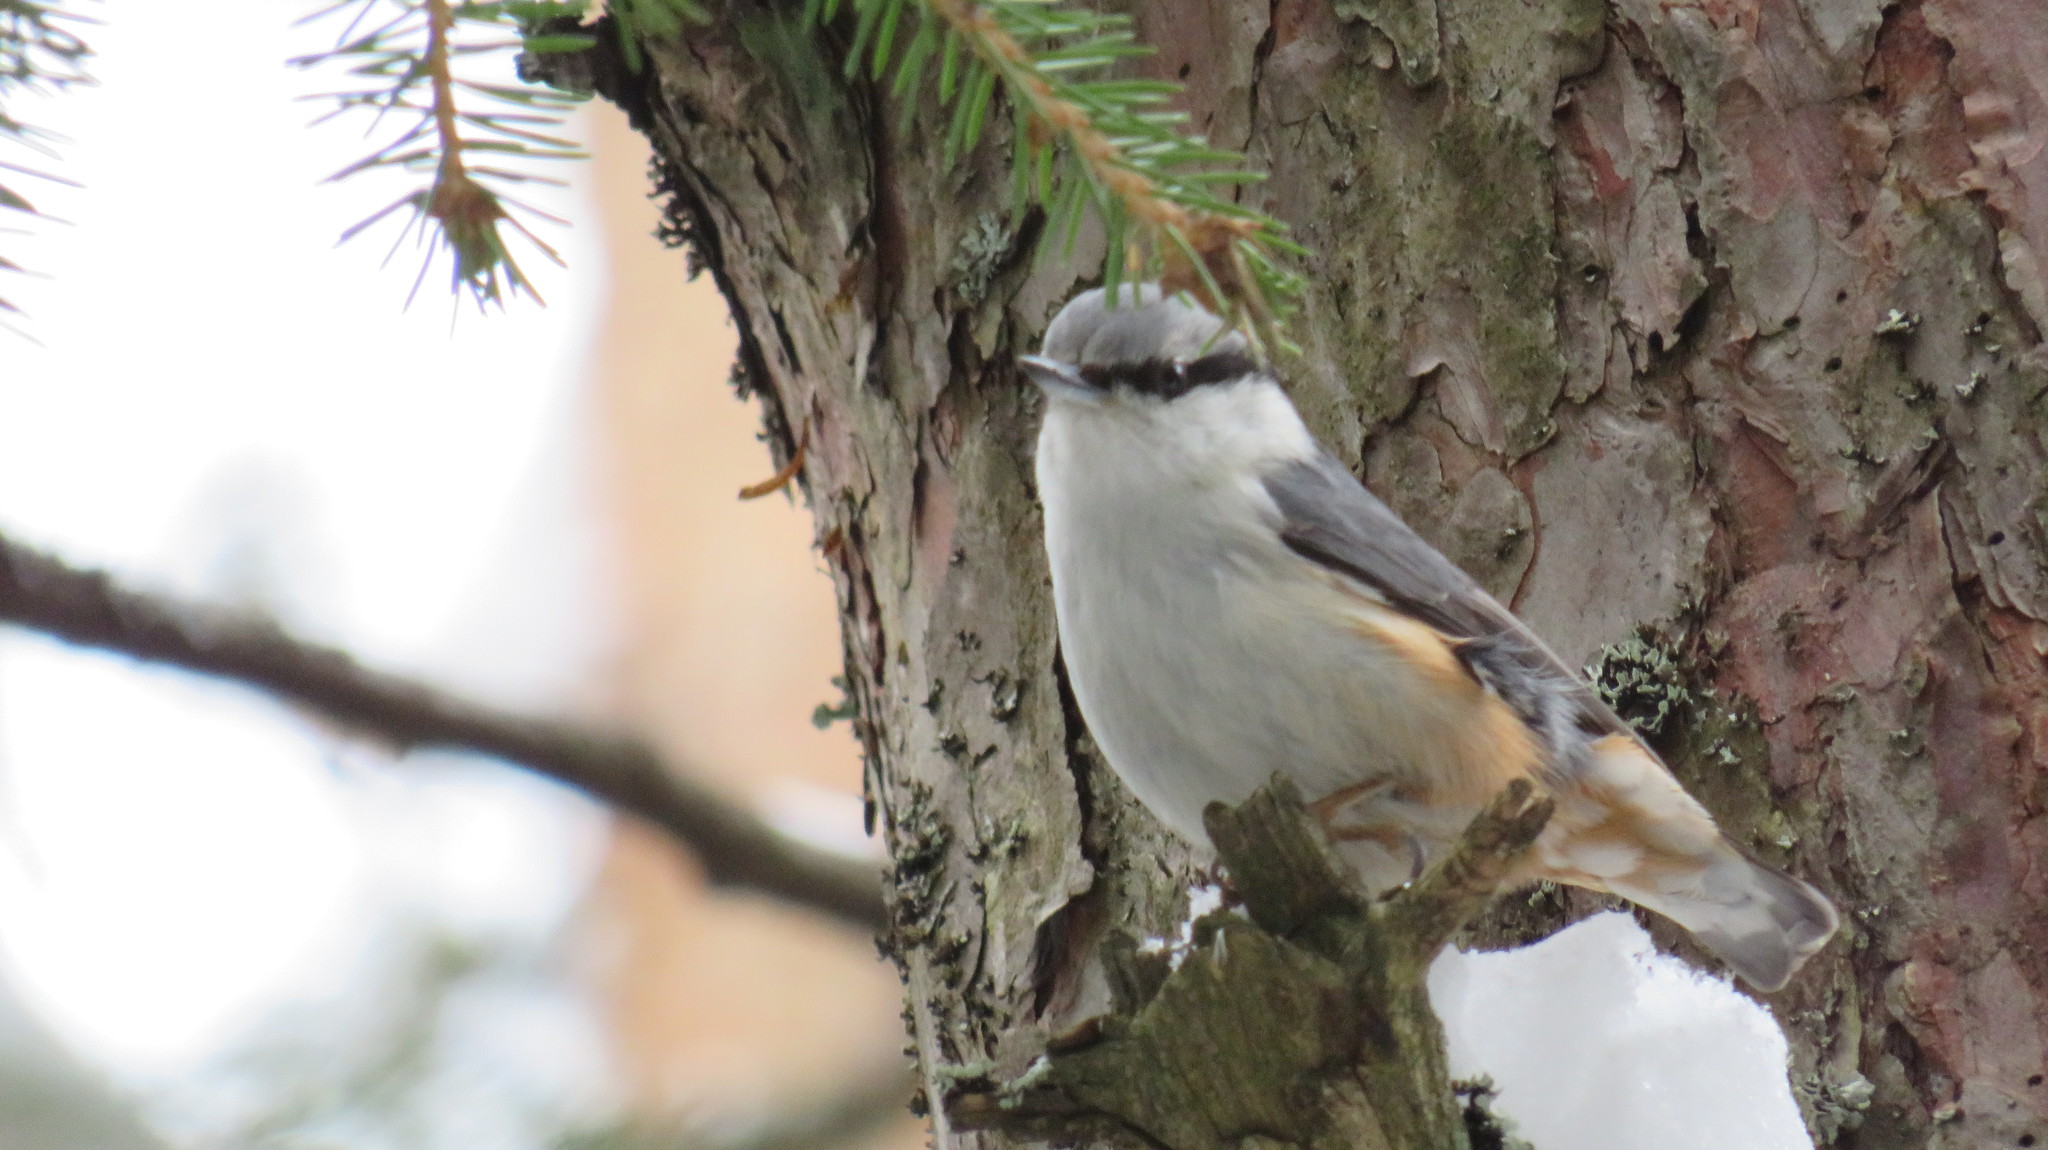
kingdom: Animalia
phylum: Chordata
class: Aves
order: Passeriformes
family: Sittidae
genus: Sitta
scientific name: Sitta europaea
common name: Eurasian nuthatch
